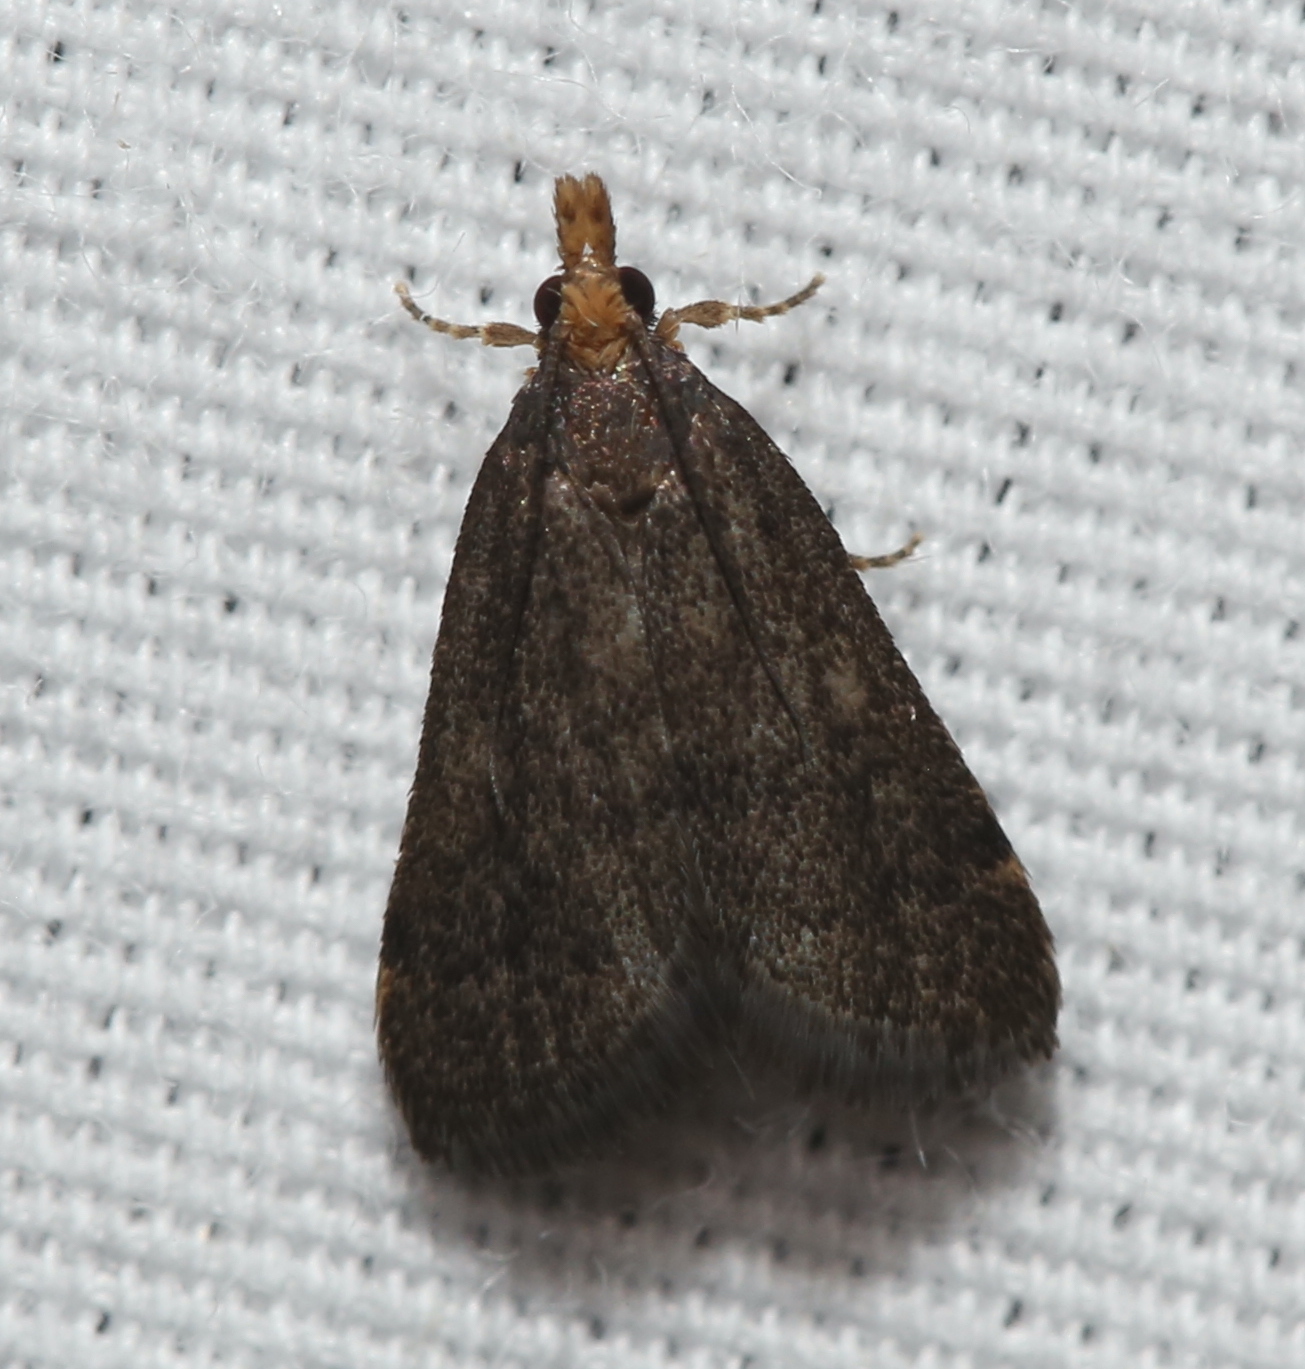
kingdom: Animalia
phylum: Arthropoda
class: Insecta
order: Lepidoptera
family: Crambidae
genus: Pyrausta
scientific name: Pyrausta merrickalis
